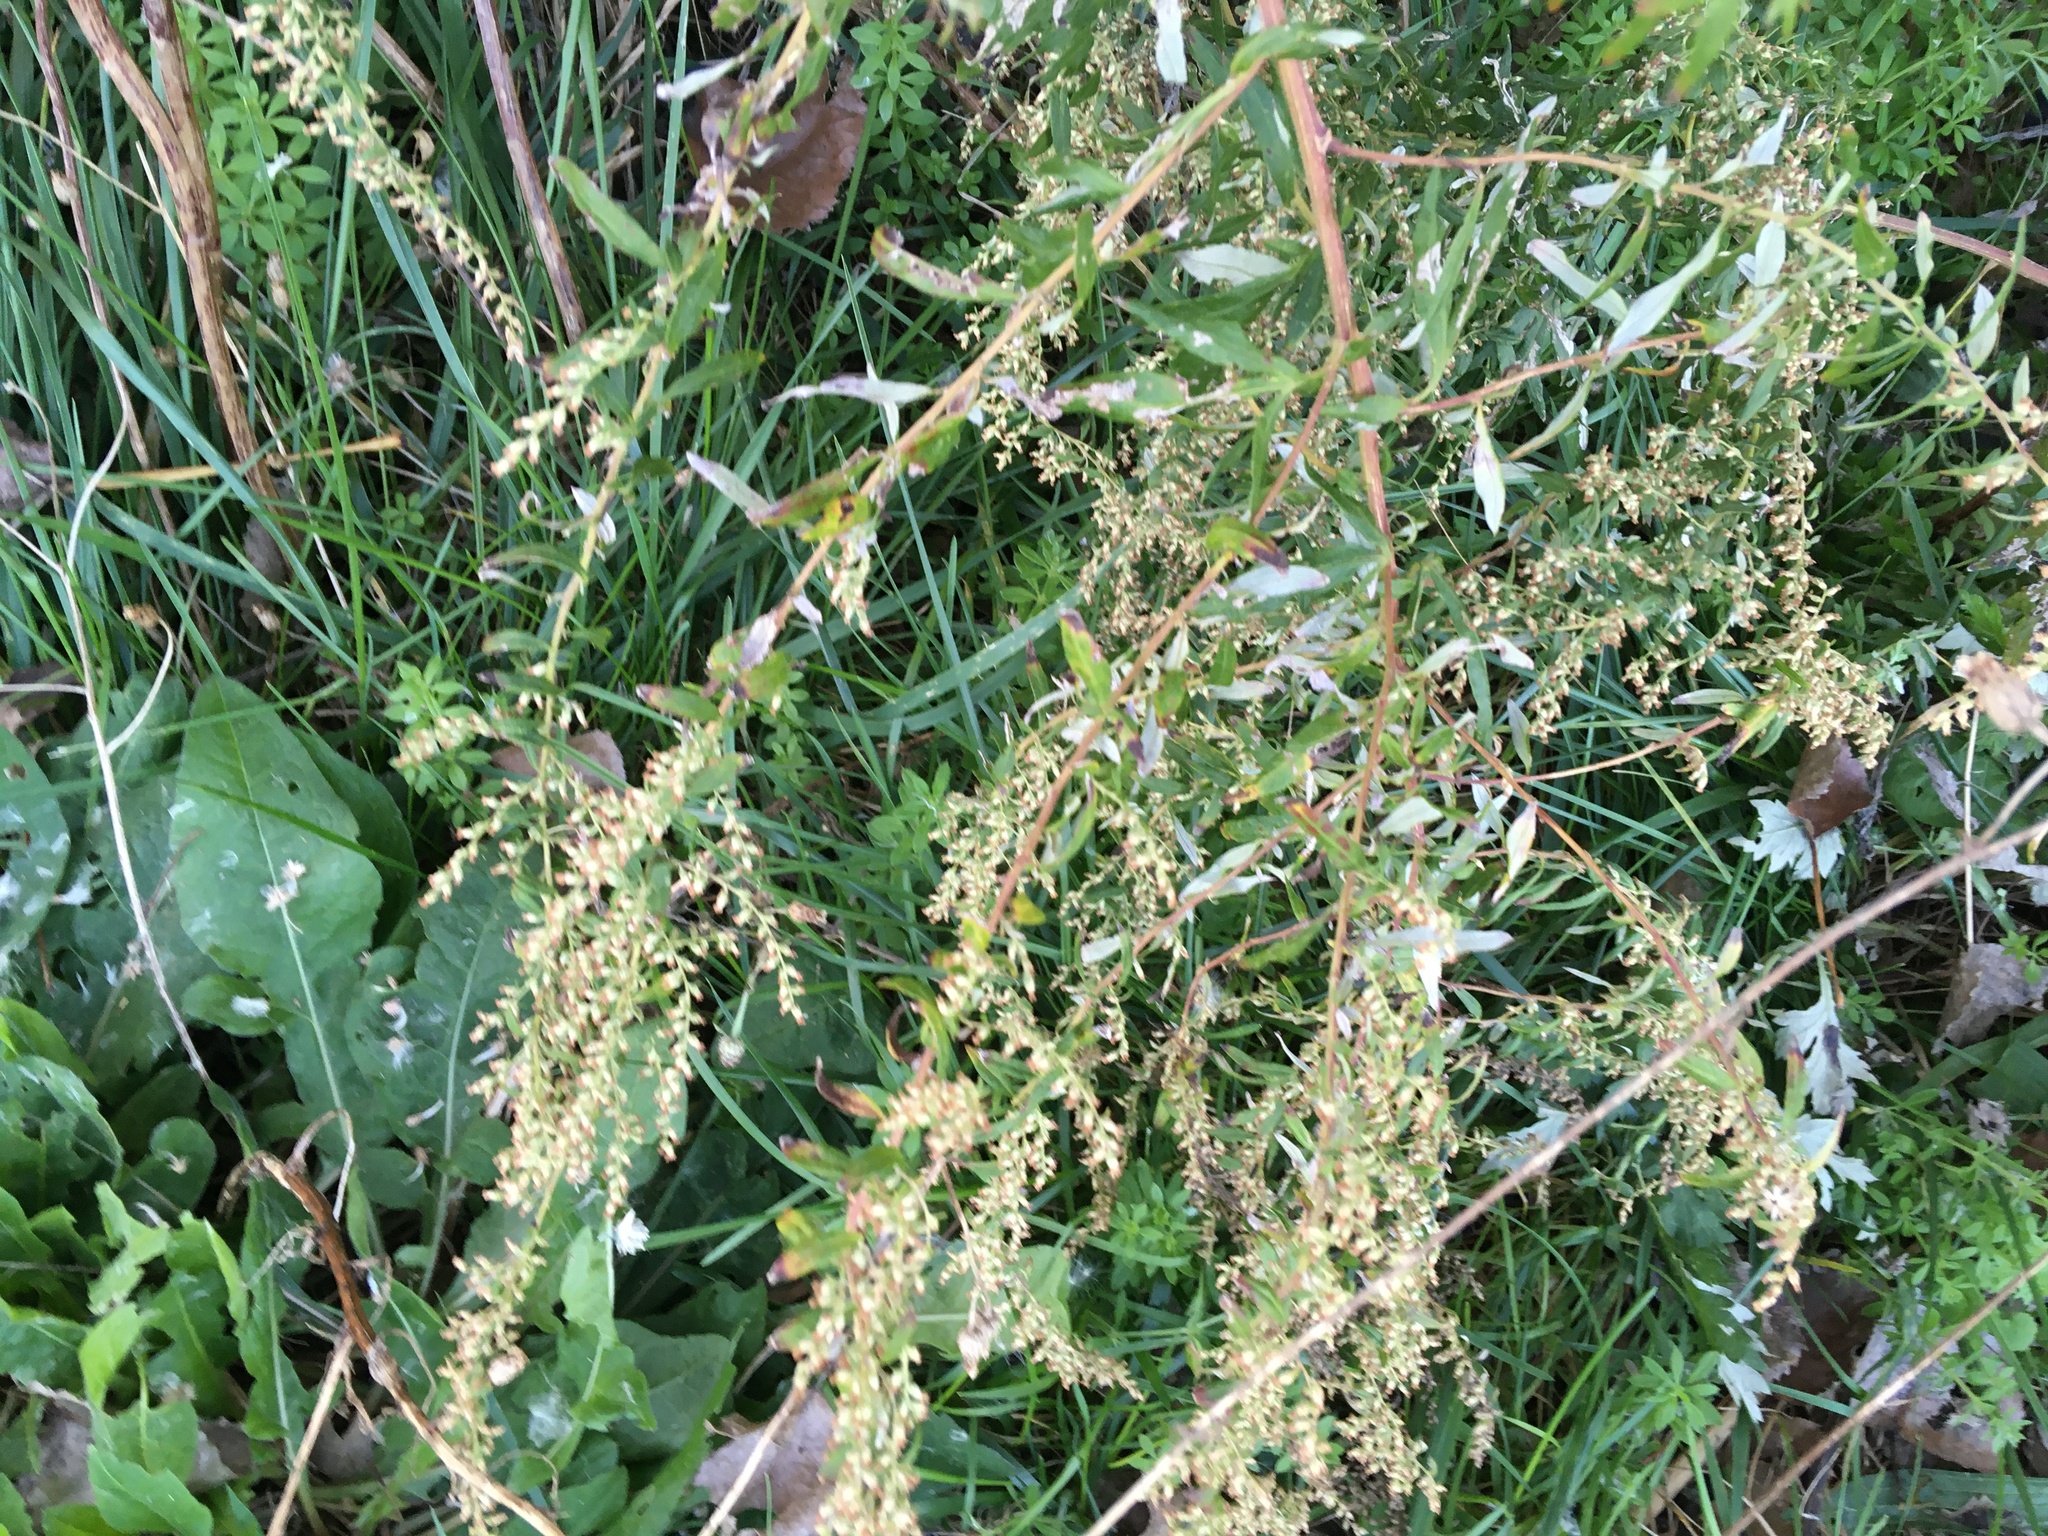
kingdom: Plantae
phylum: Tracheophyta
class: Magnoliopsida
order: Asterales
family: Asteraceae
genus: Artemisia
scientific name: Artemisia vulgaris
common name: Mugwort
